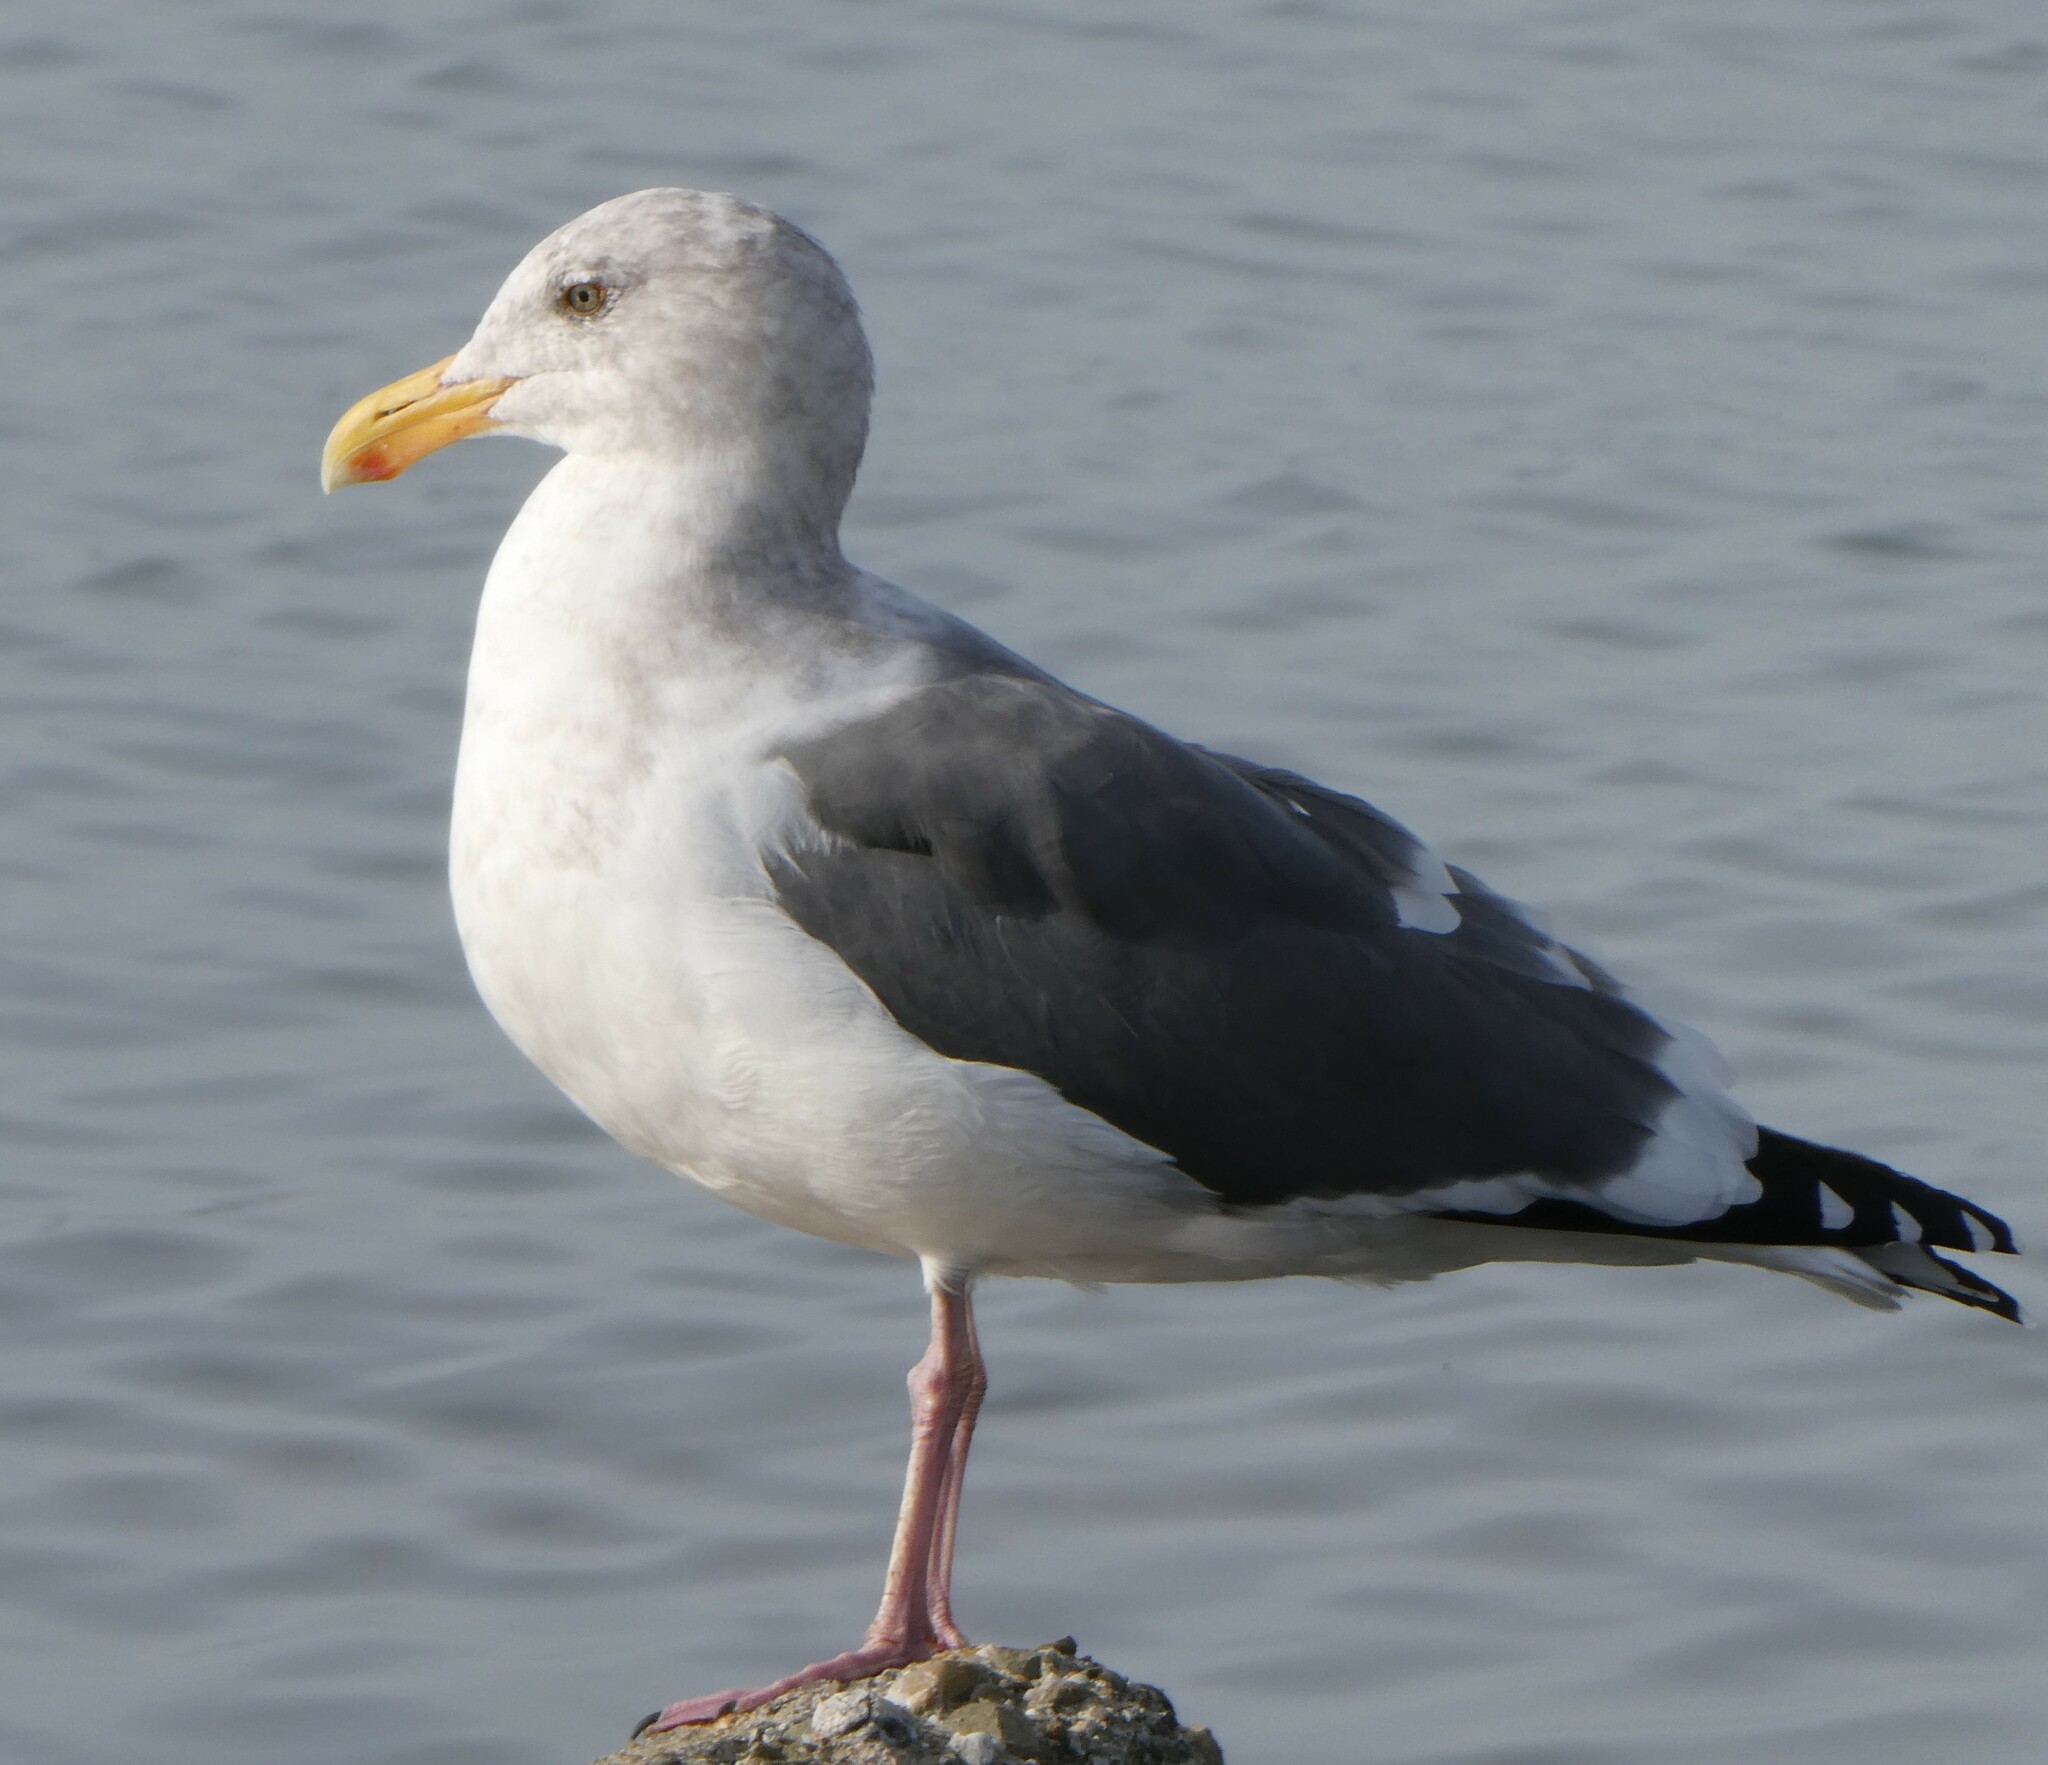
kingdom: Animalia
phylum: Chordata
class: Aves
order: Charadriiformes
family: Laridae
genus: Larus
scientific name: Larus occidentalis
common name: Western gull
